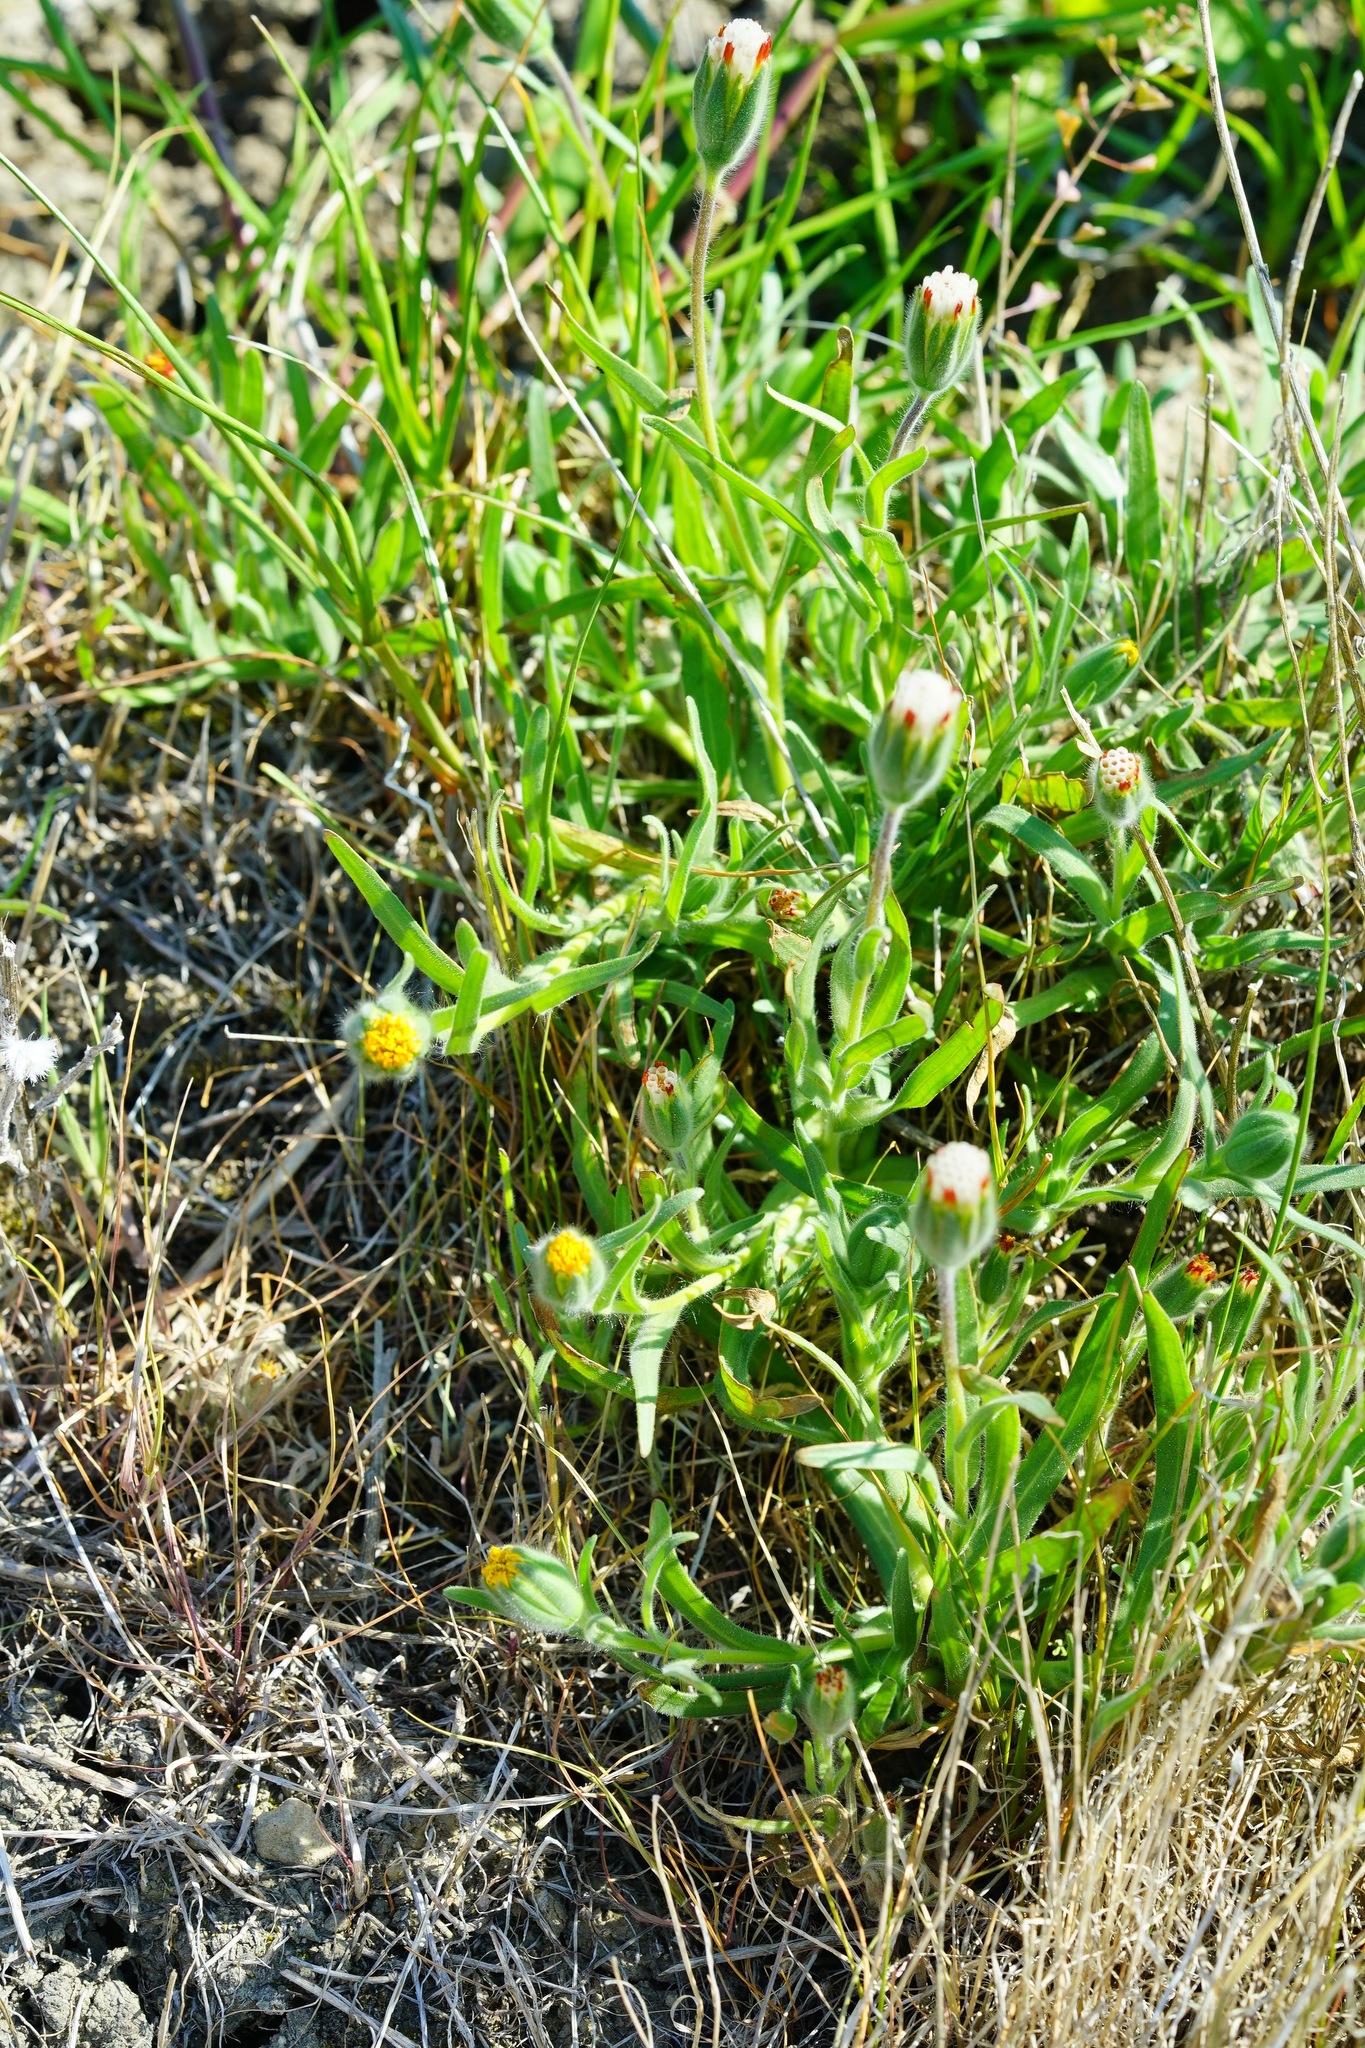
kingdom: Plantae
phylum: Tracheophyta
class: Magnoliopsida
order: Asterales
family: Asteraceae
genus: Achyrachaena
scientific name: Achyrachaena mollis
